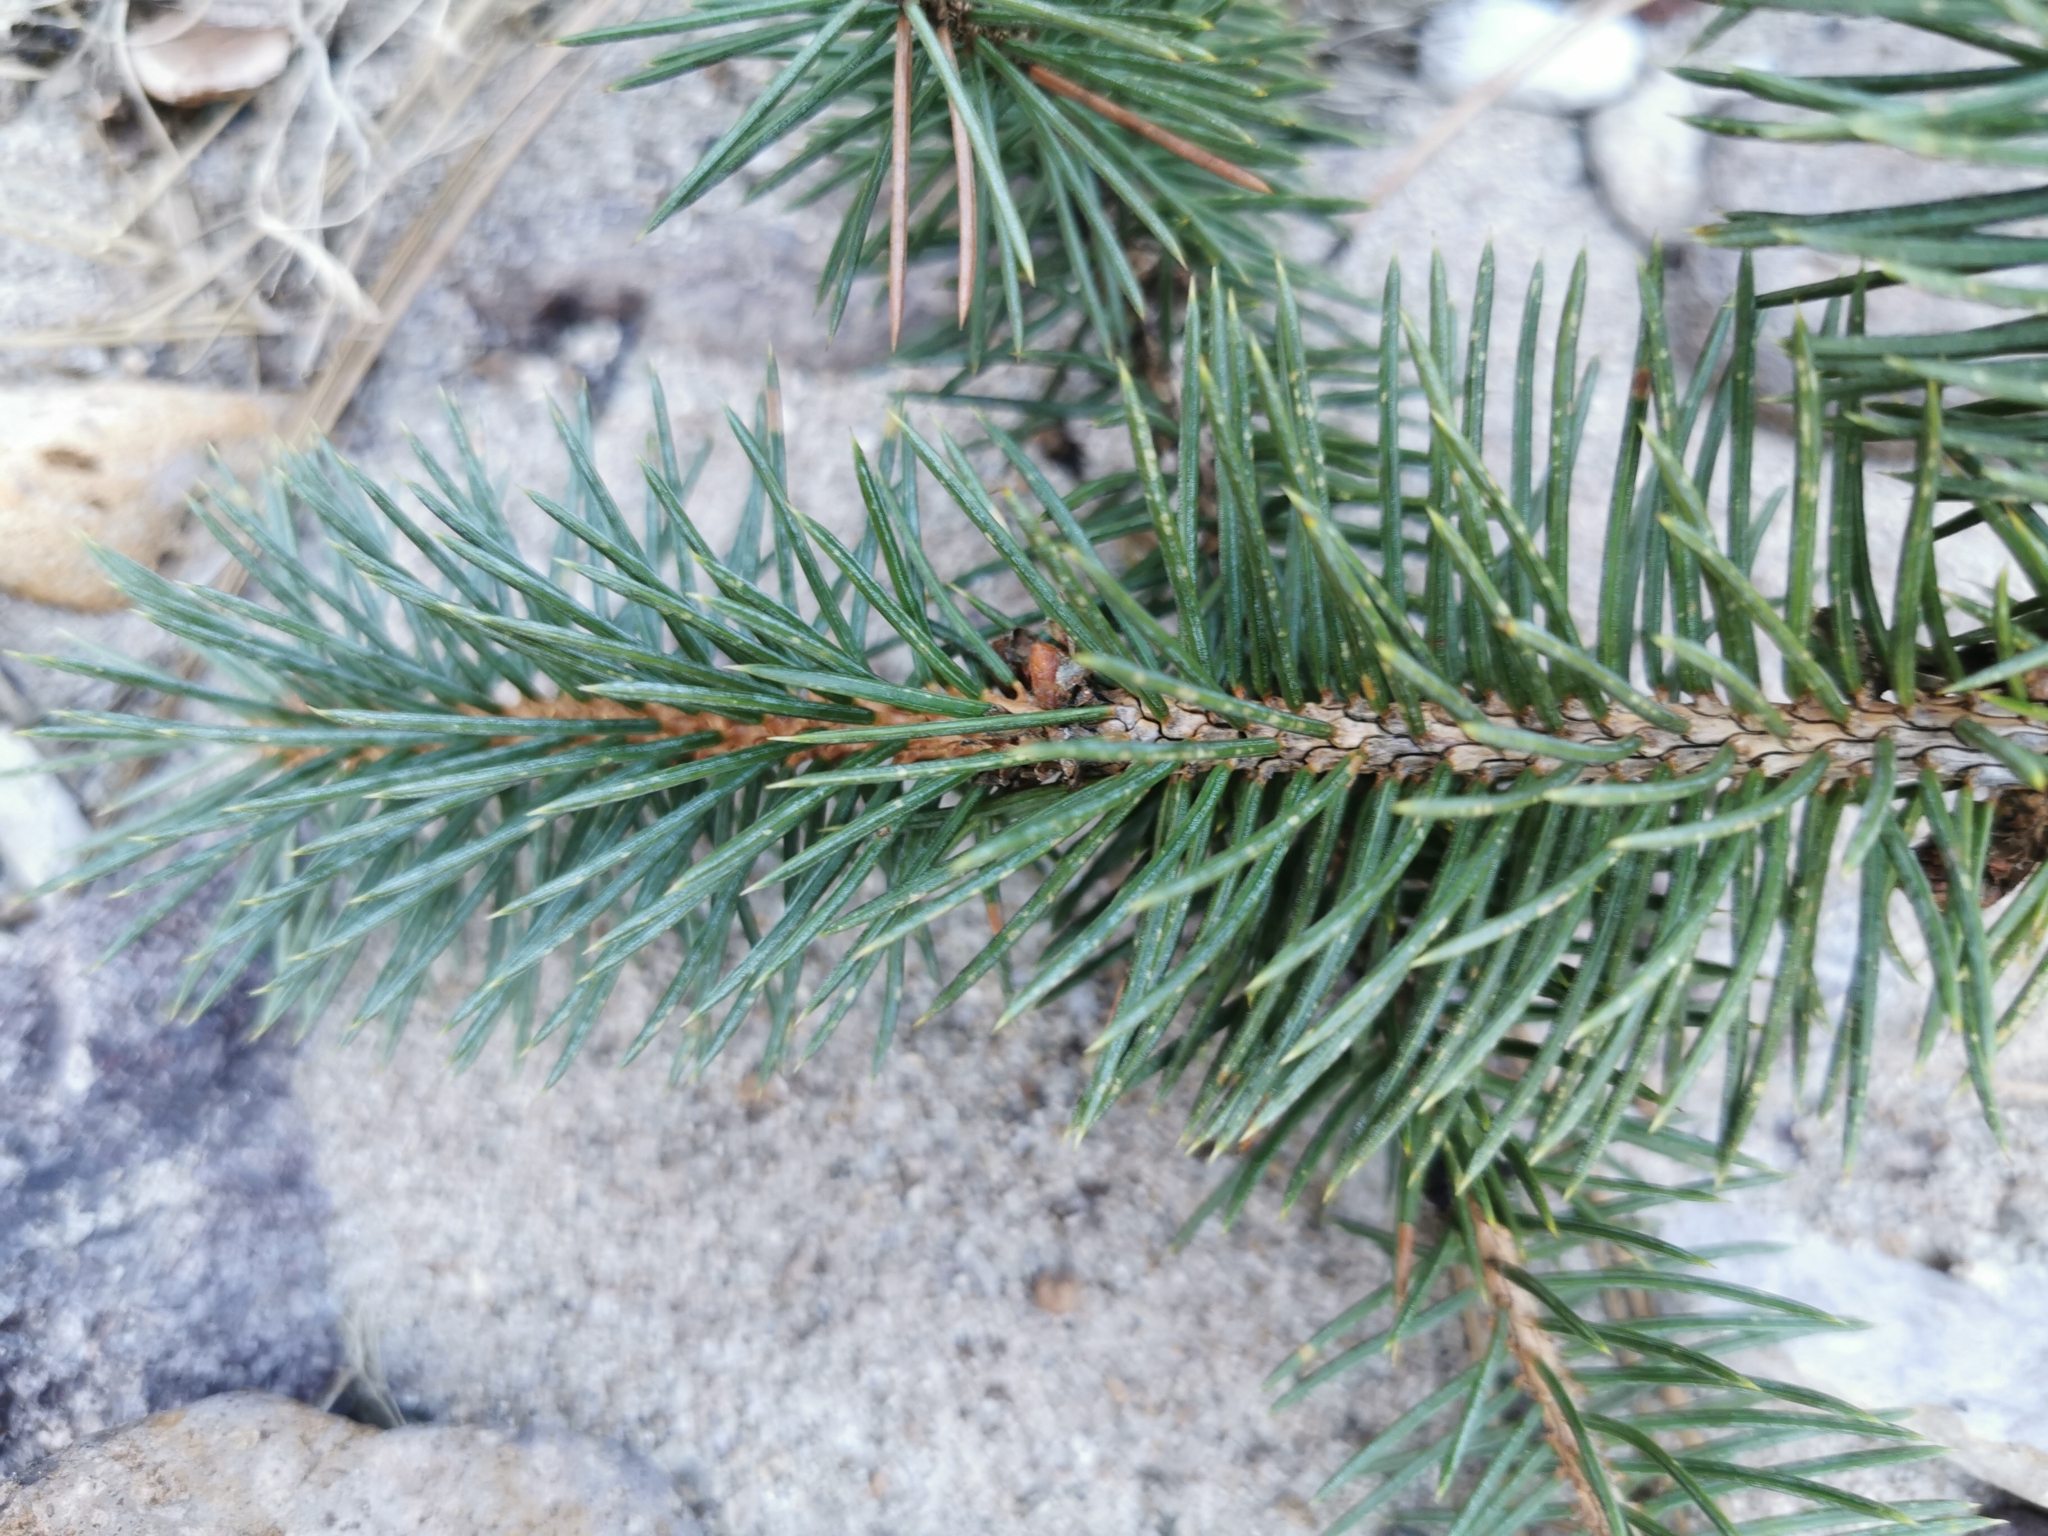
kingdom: Plantae
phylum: Tracheophyta
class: Pinopsida
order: Pinales
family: Pinaceae
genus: Picea
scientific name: Picea chihuahuana
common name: Chihuahua spruce
